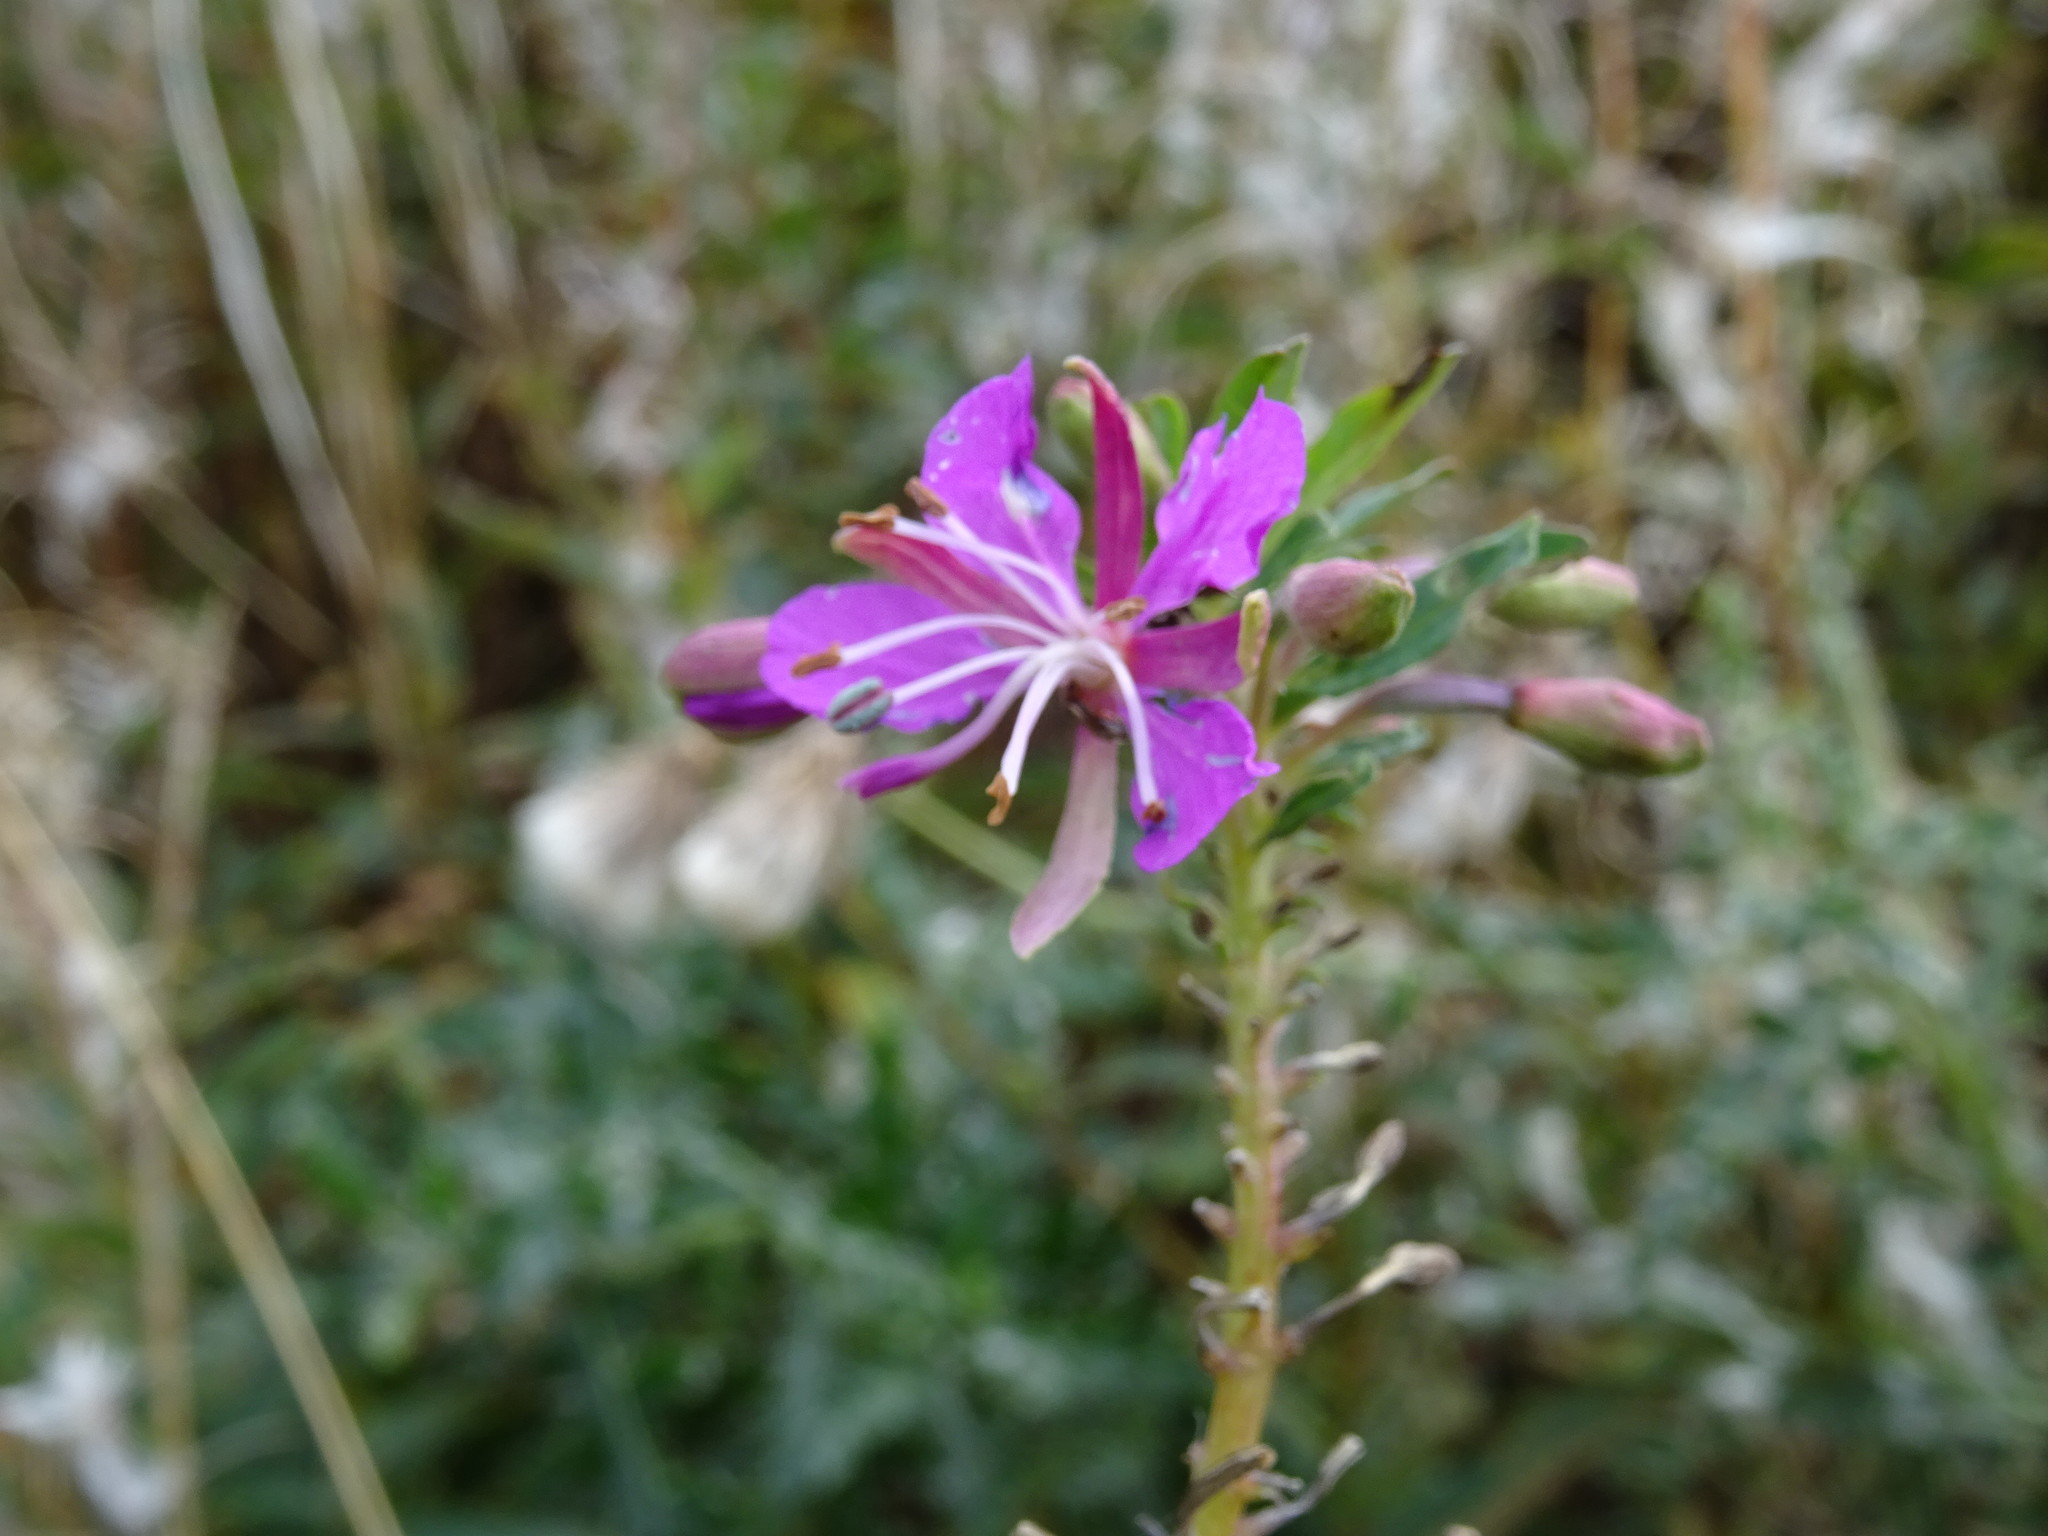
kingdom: Plantae
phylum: Tracheophyta
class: Magnoliopsida
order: Myrtales
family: Onagraceae
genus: Chamaenerion
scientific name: Chamaenerion angustifolium
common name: Fireweed
